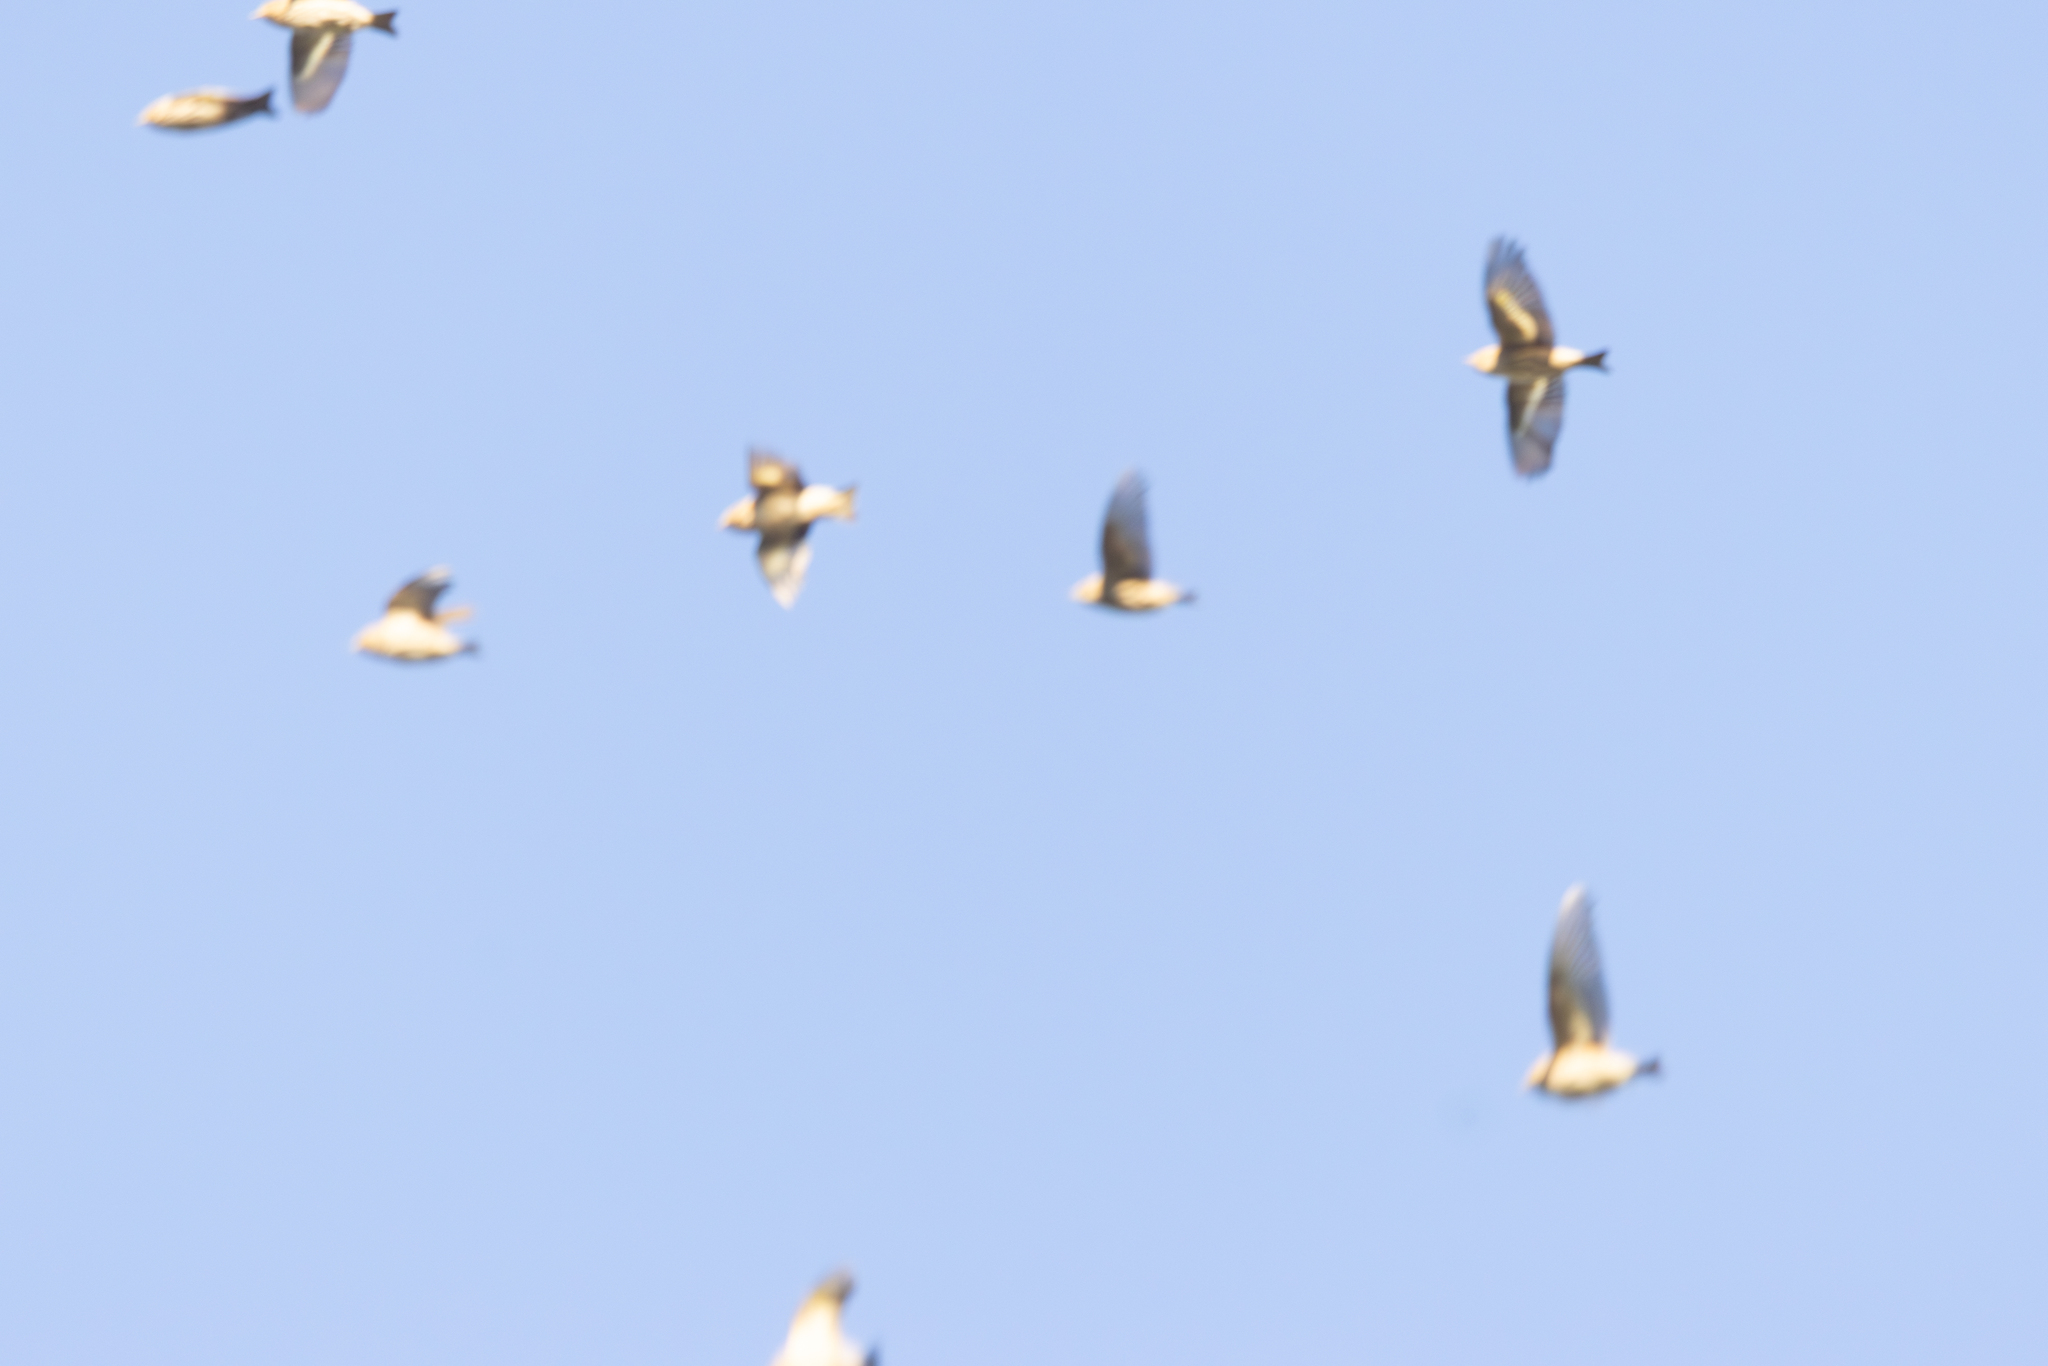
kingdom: Animalia
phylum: Chordata
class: Aves
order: Passeriformes
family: Fringillidae
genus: Spinus
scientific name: Spinus pinus
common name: Pine siskin
